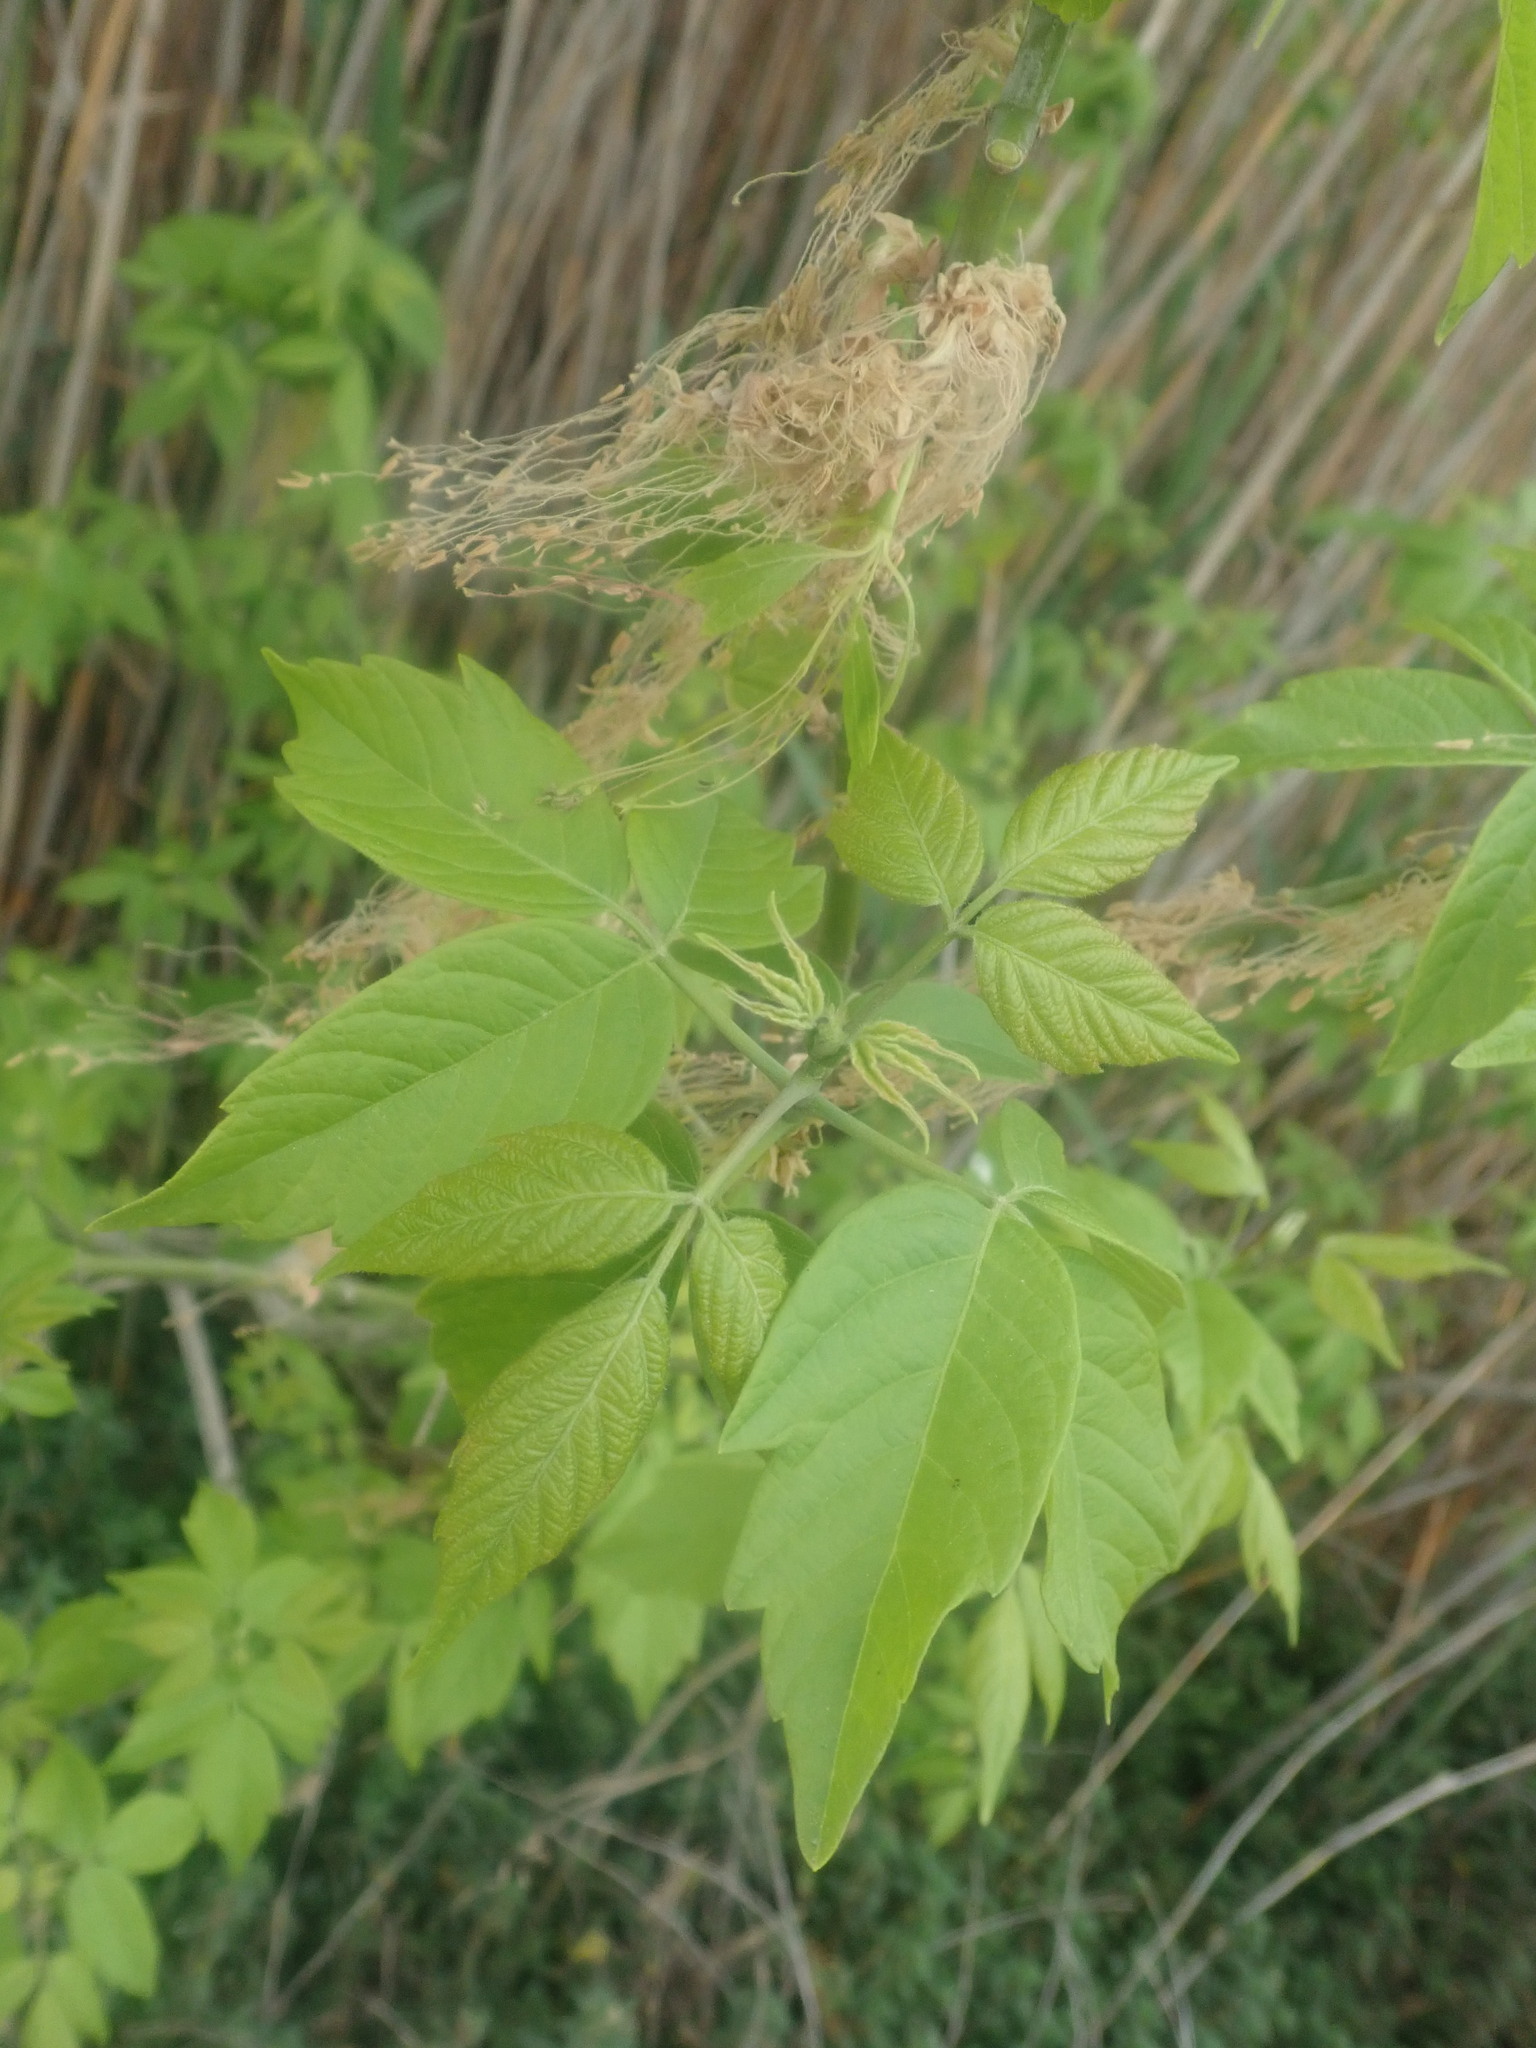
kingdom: Plantae
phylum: Tracheophyta
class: Magnoliopsida
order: Sapindales
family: Sapindaceae
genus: Acer
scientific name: Acer negundo
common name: Ashleaf maple
